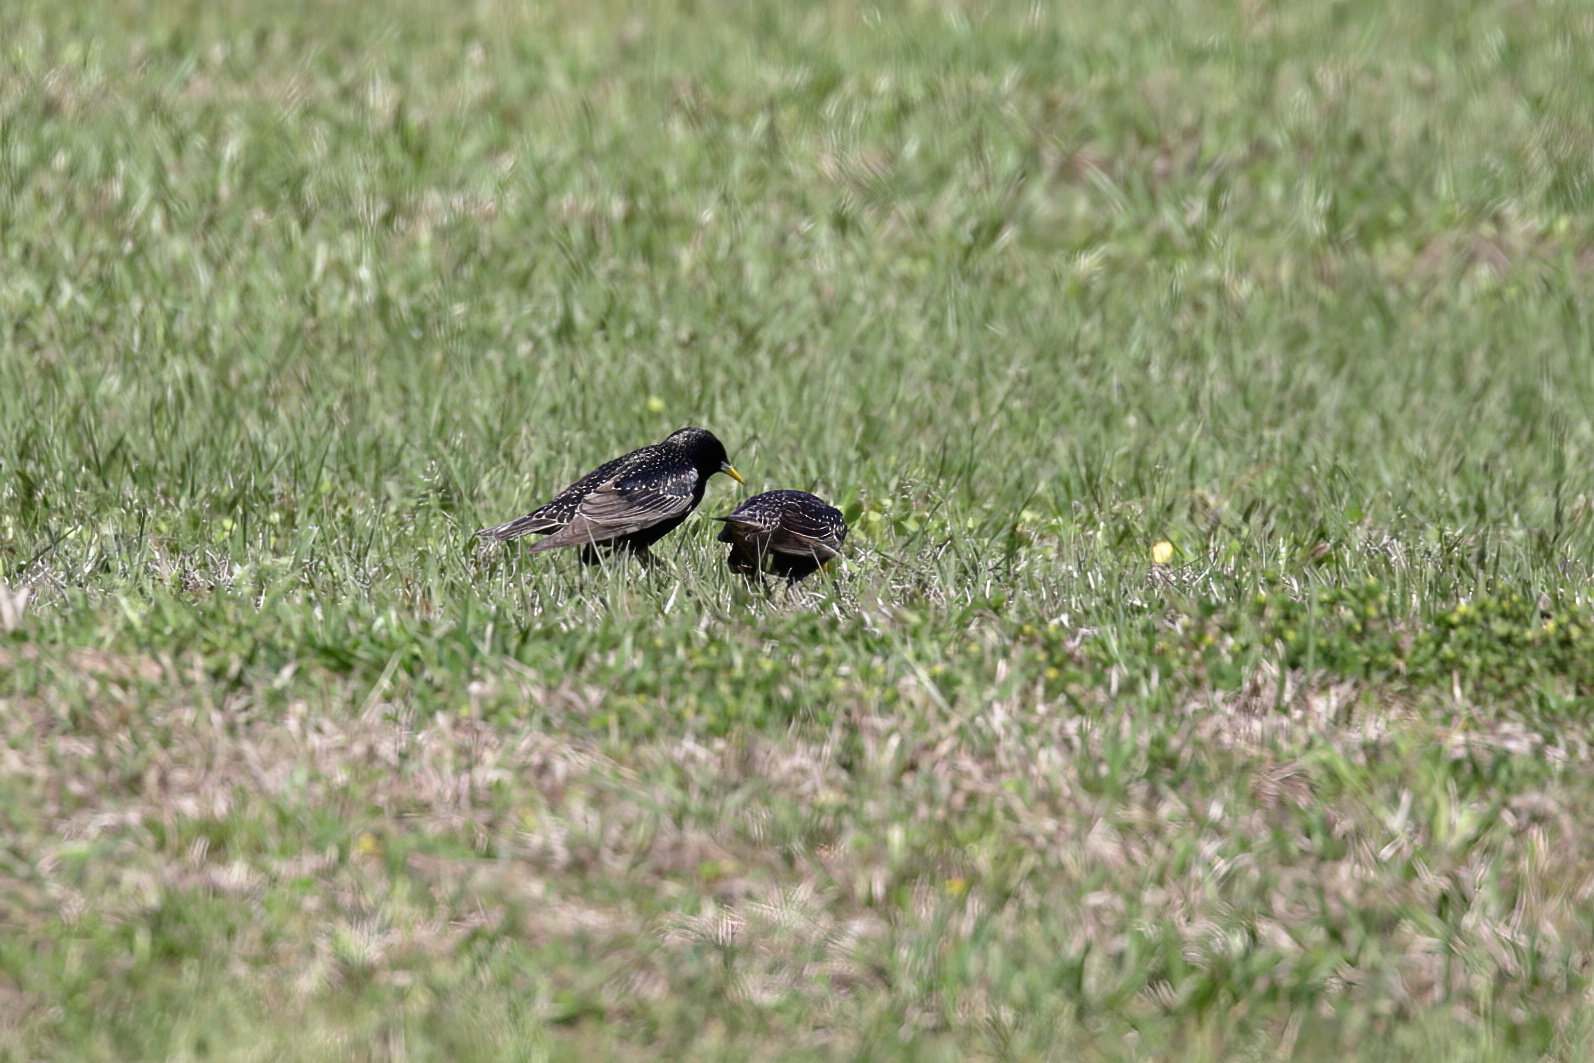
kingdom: Animalia
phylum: Chordata
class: Aves
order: Passeriformes
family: Sturnidae
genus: Sturnus
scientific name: Sturnus vulgaris
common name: Common starling
